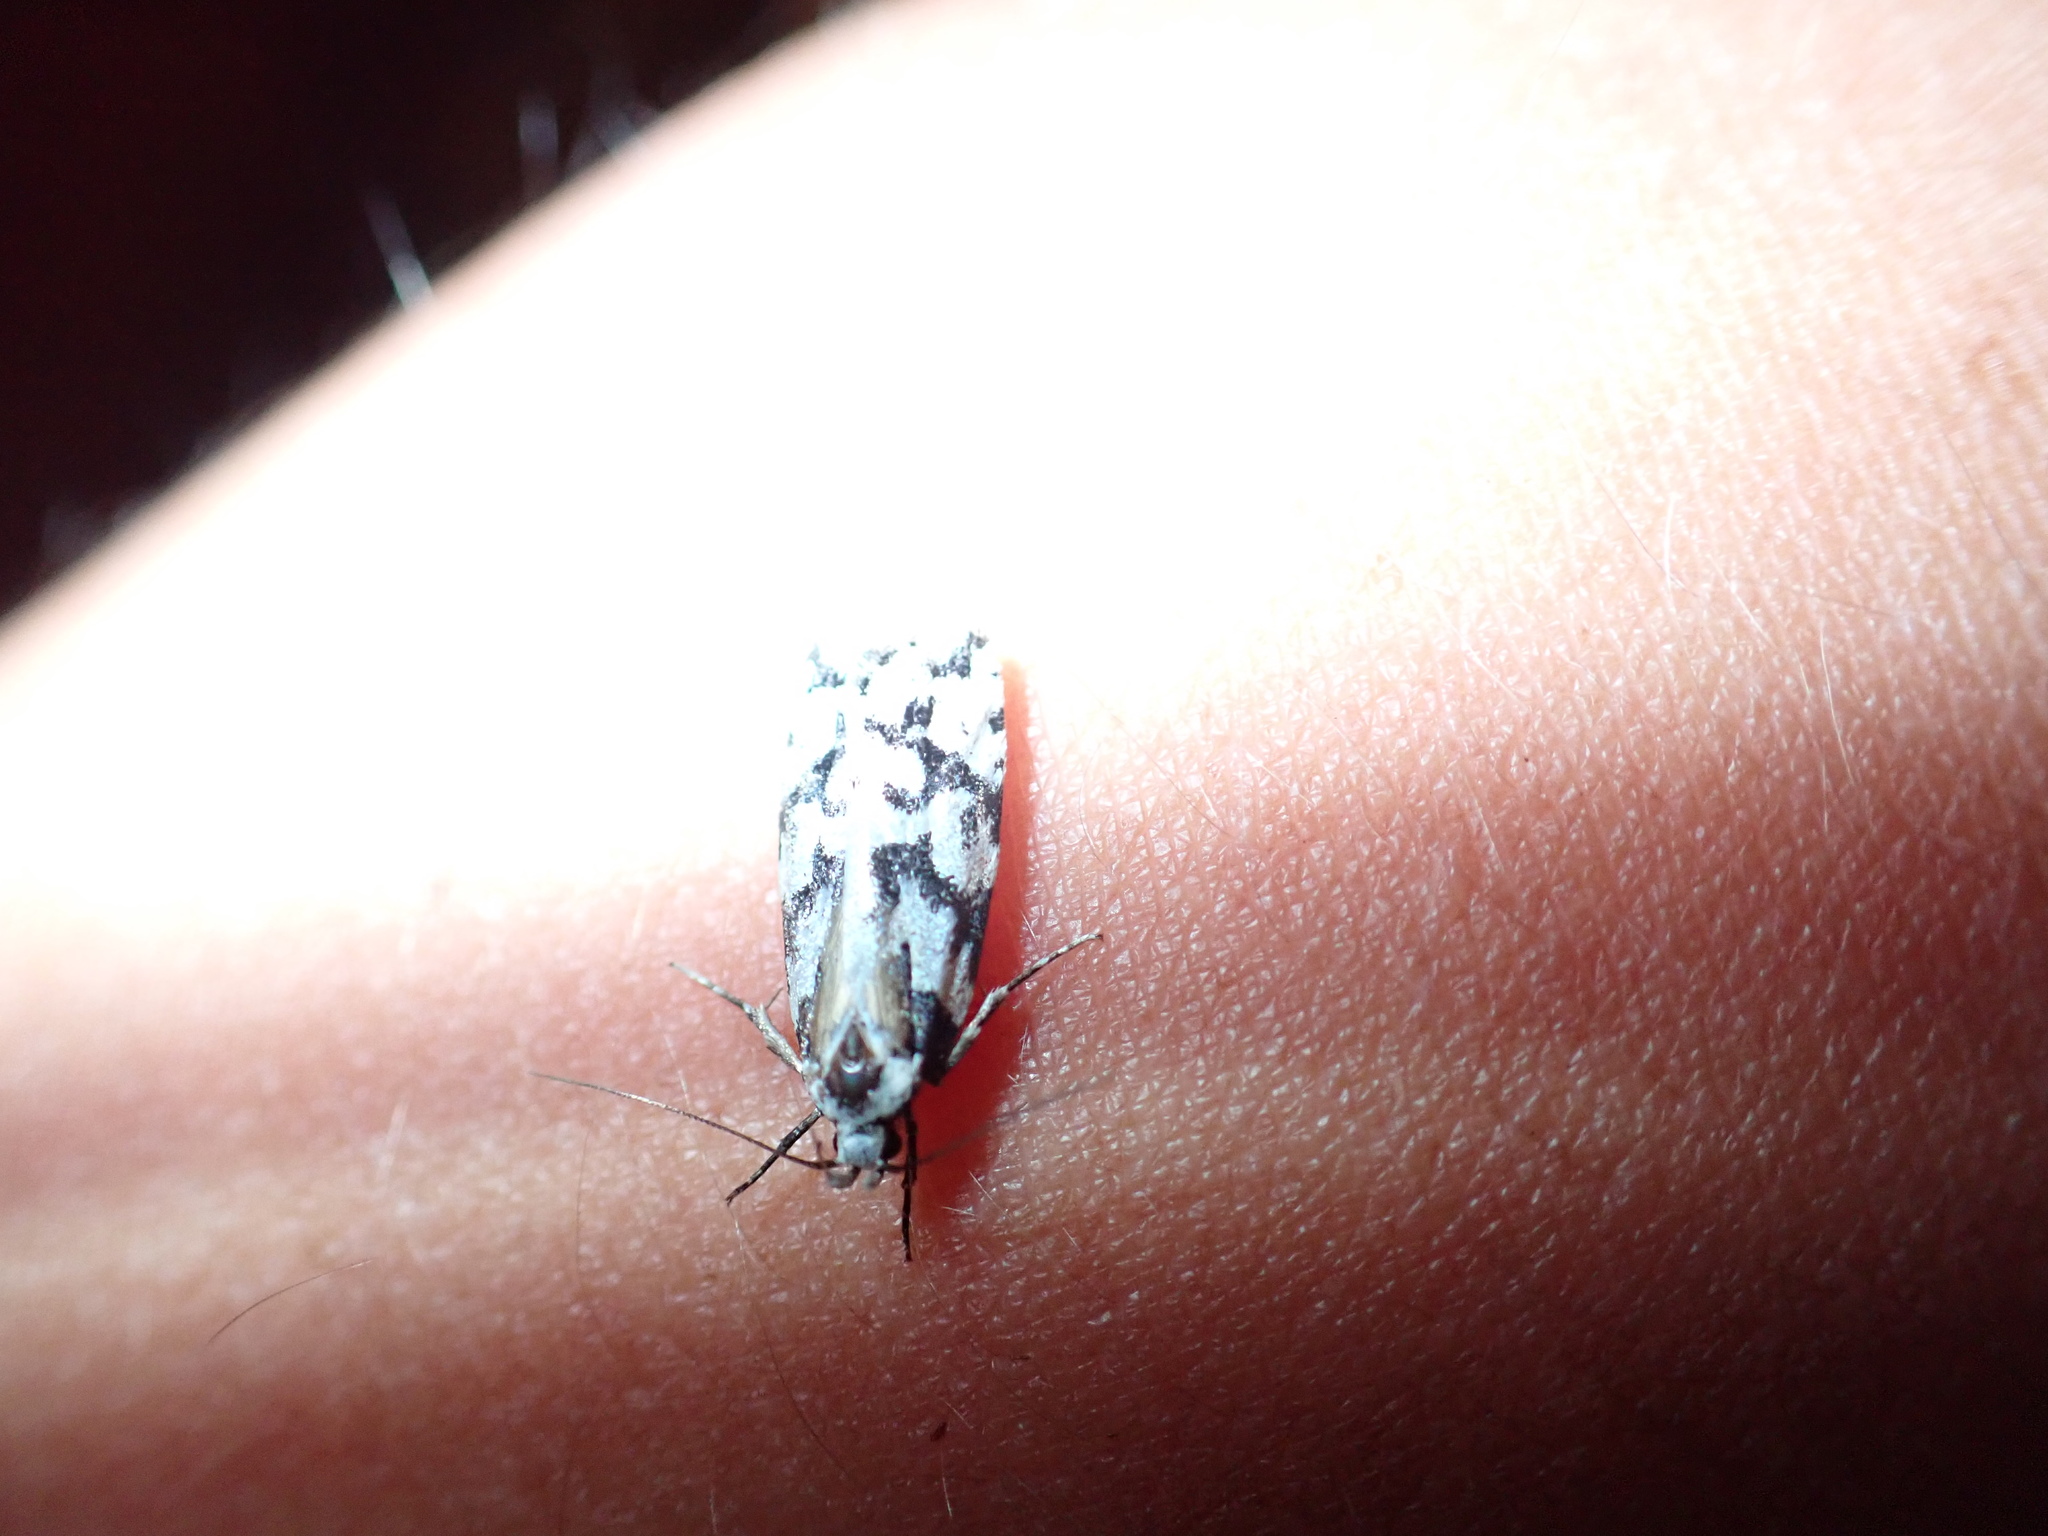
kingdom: Animalia
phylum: Arthropoda
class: Insecta
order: Lepidoptera
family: Oecophoridae
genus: Izatha
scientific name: Izatha epiphanes
